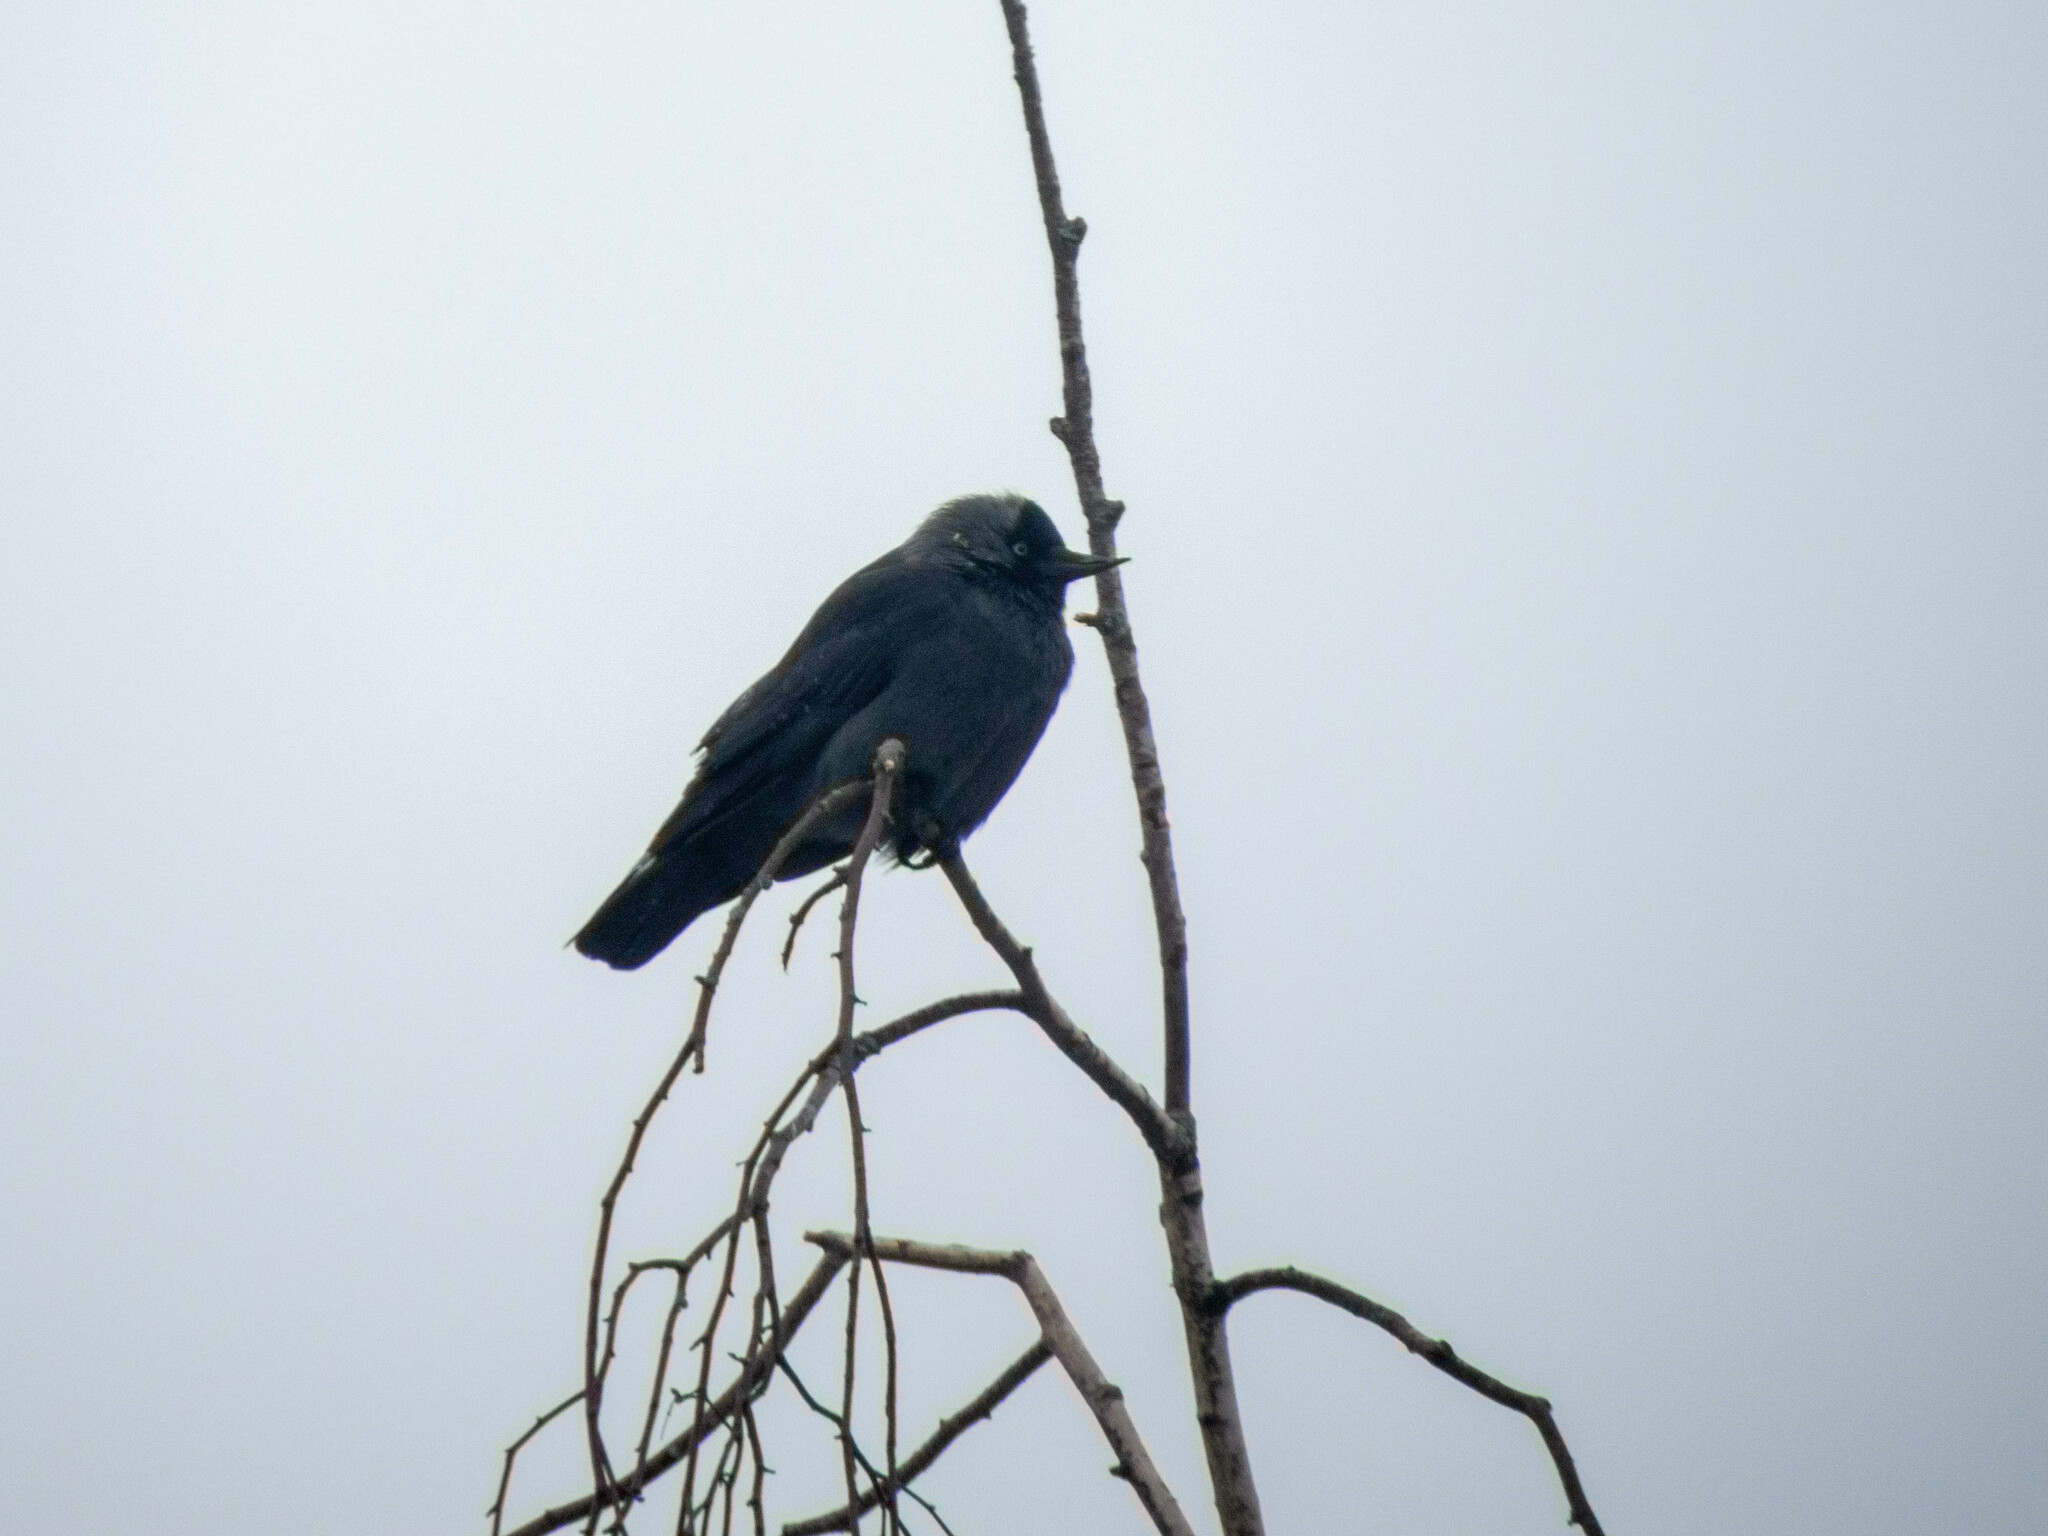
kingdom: Animalia
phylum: Chordata
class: Aves
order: Passeriformes
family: Corvidae
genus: Coloeus
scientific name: Coloeus monedula
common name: Western jackdaw
